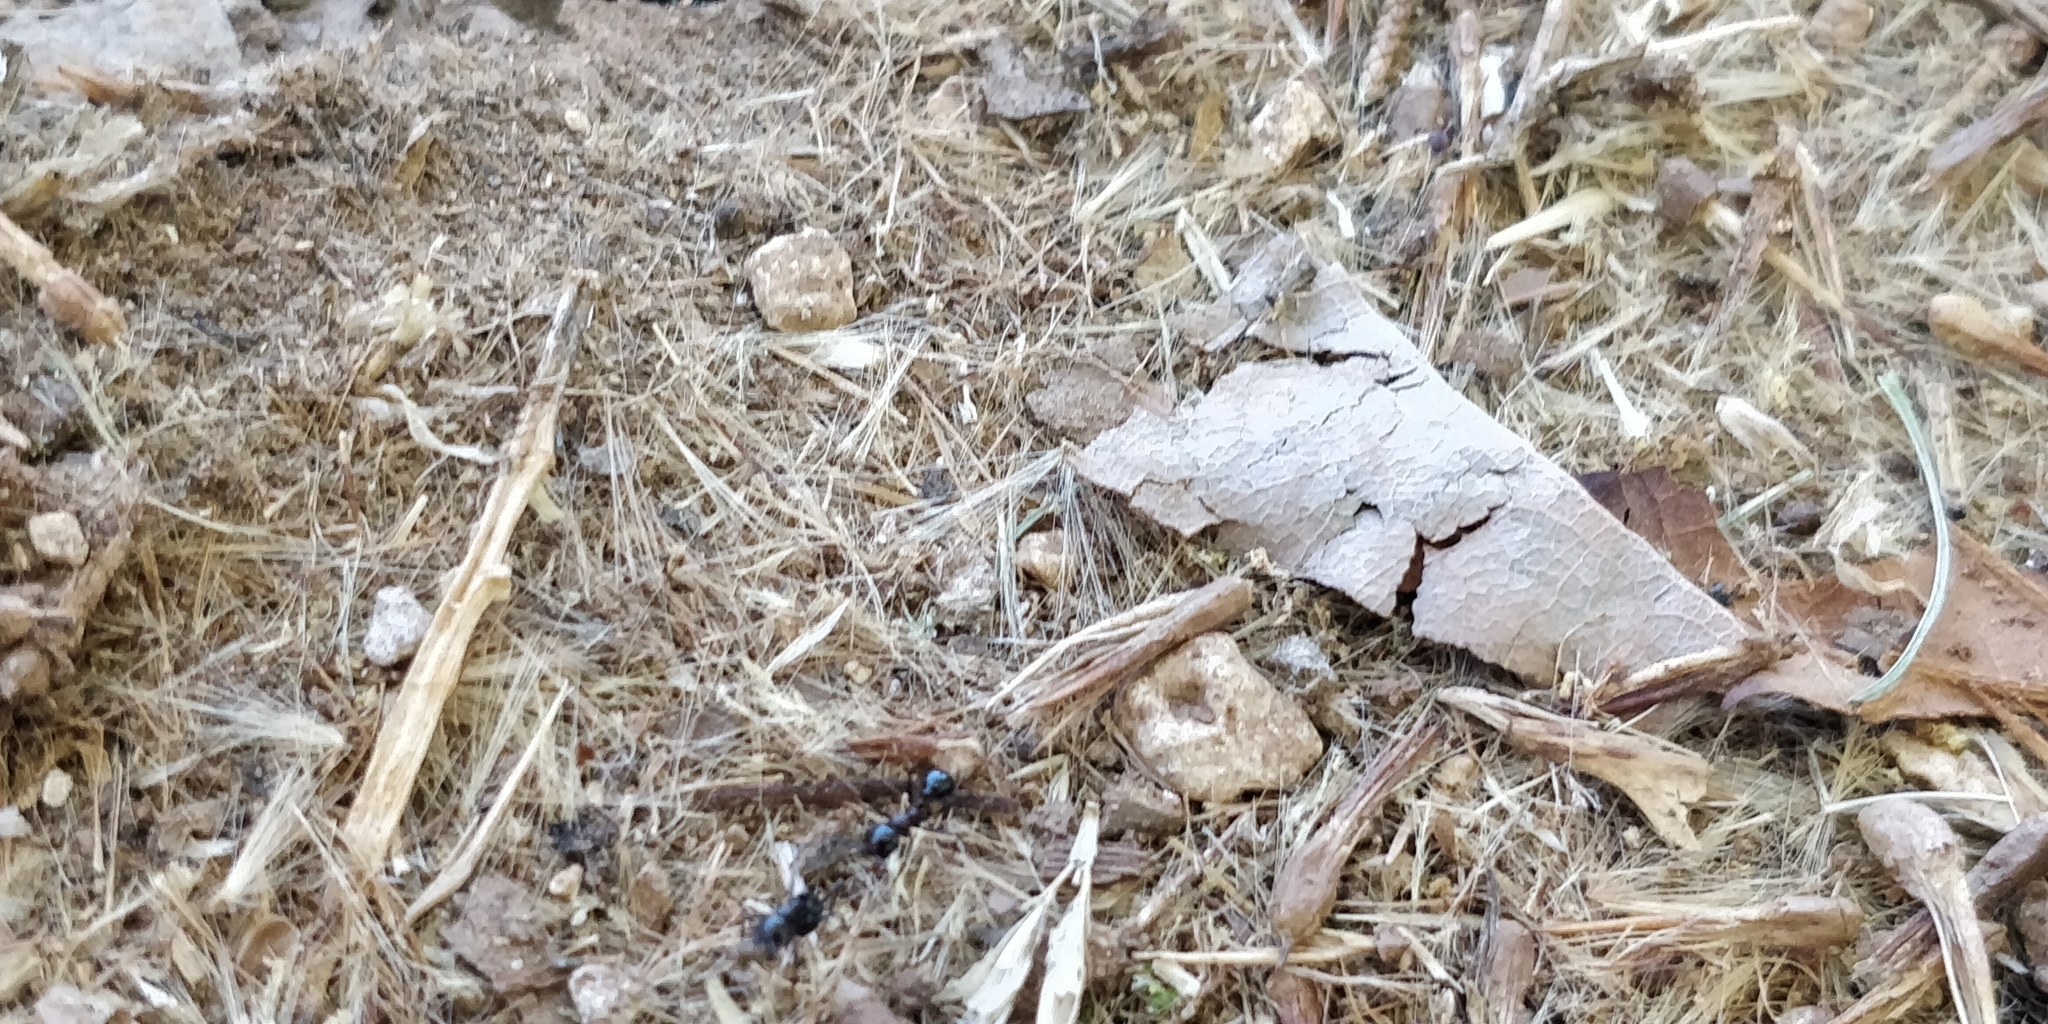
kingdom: Animalia
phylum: Arthropoda
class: Insecta
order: Hymenoptera
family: Formicidae
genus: Messor
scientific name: Messor wasmanni
